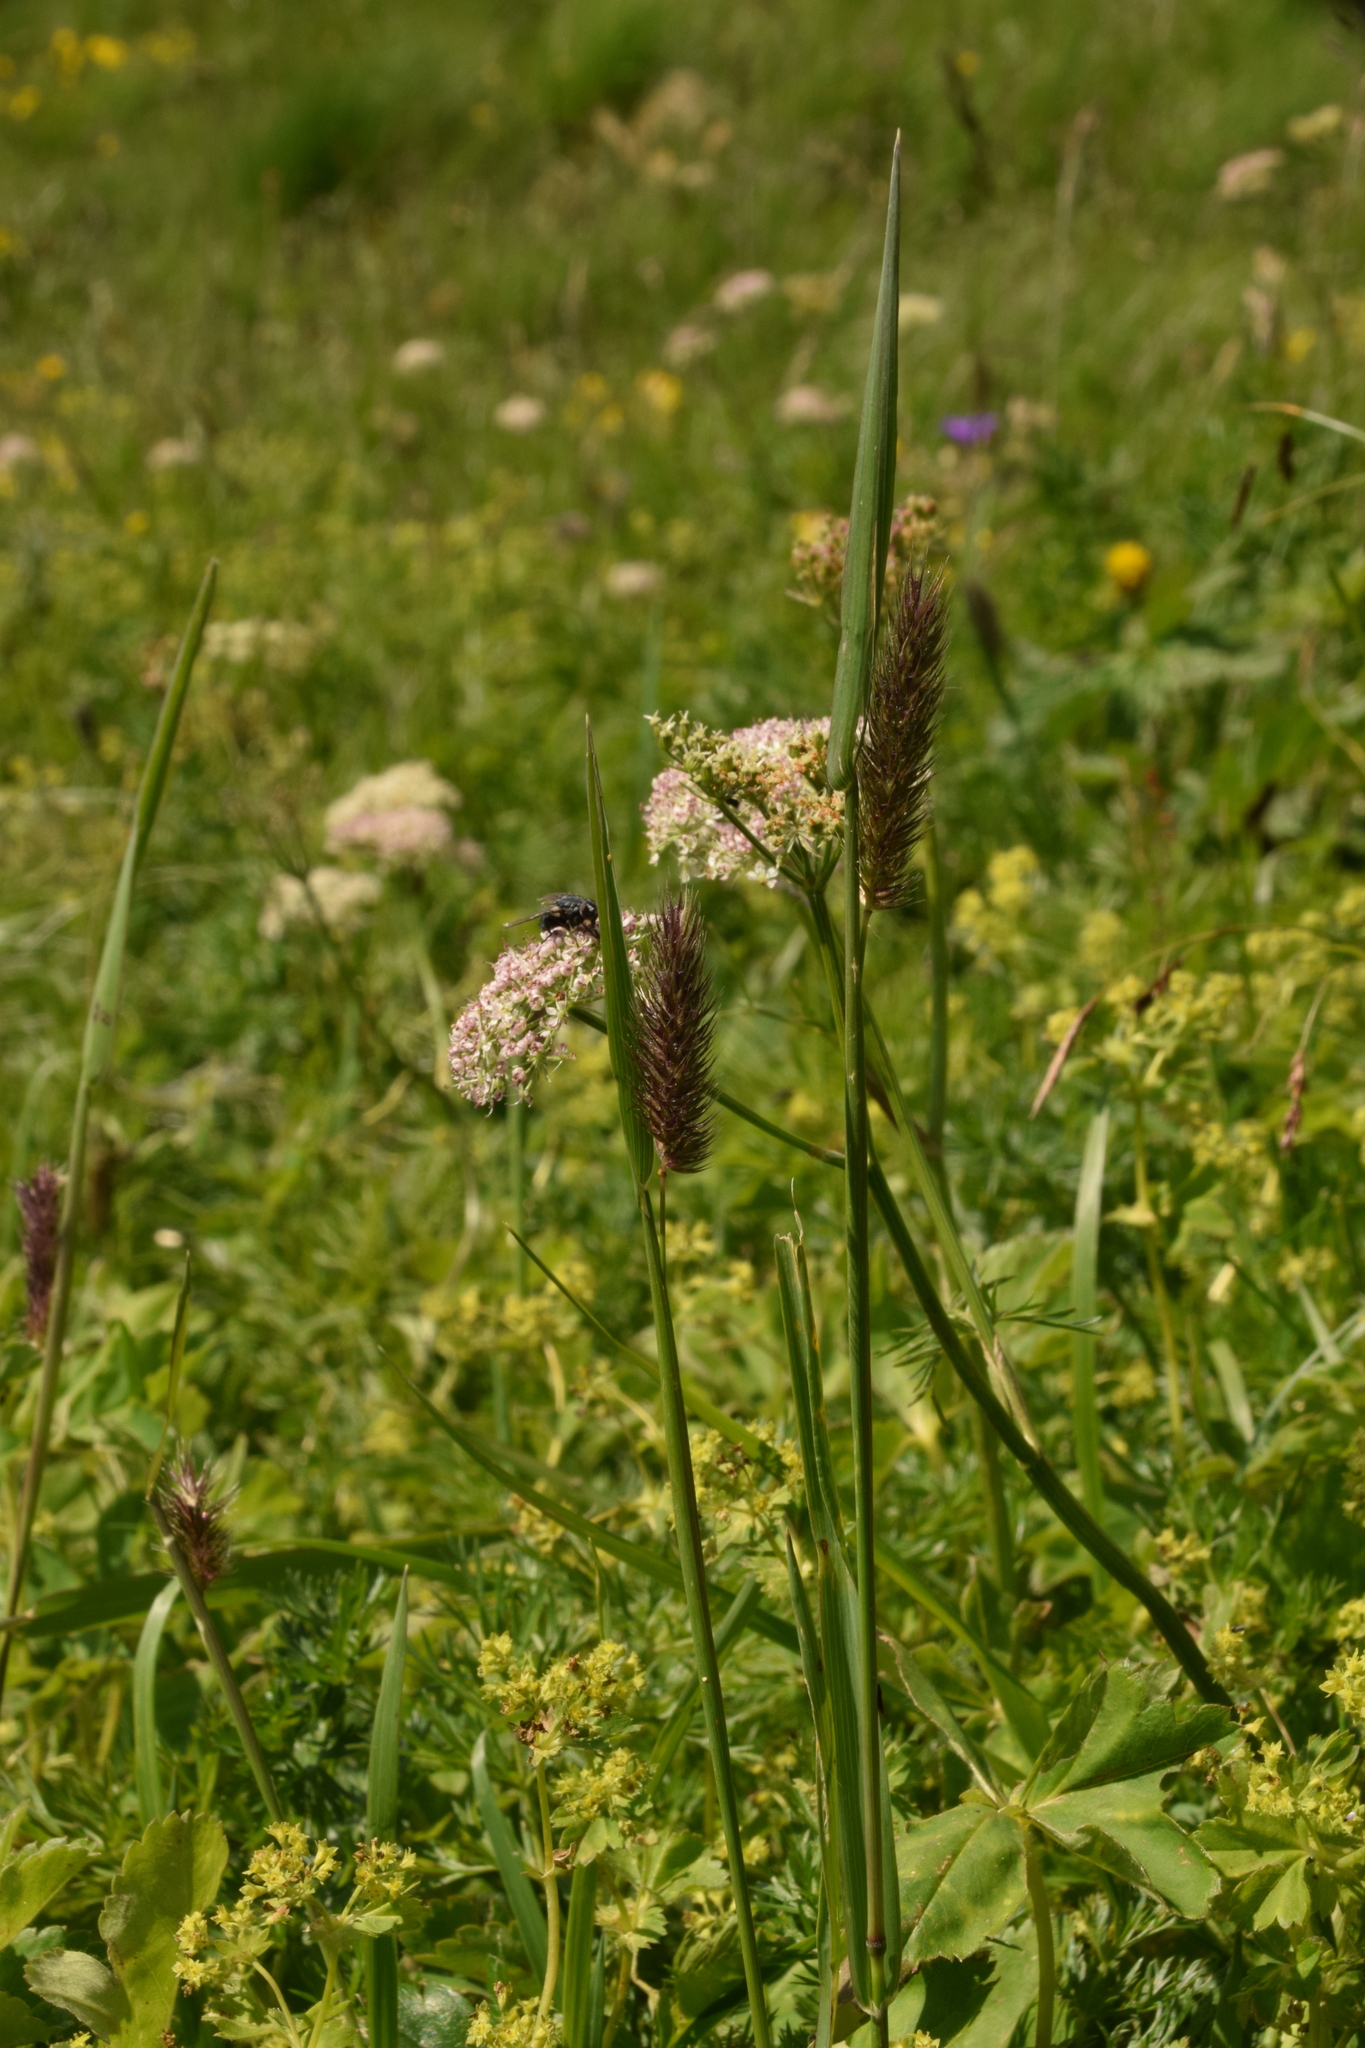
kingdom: Plantae
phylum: Tracheophyta
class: Liliopsida
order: Poales
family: Poaceae
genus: Phleum
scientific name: Phleum alpinum
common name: Alpine cat's-tail
